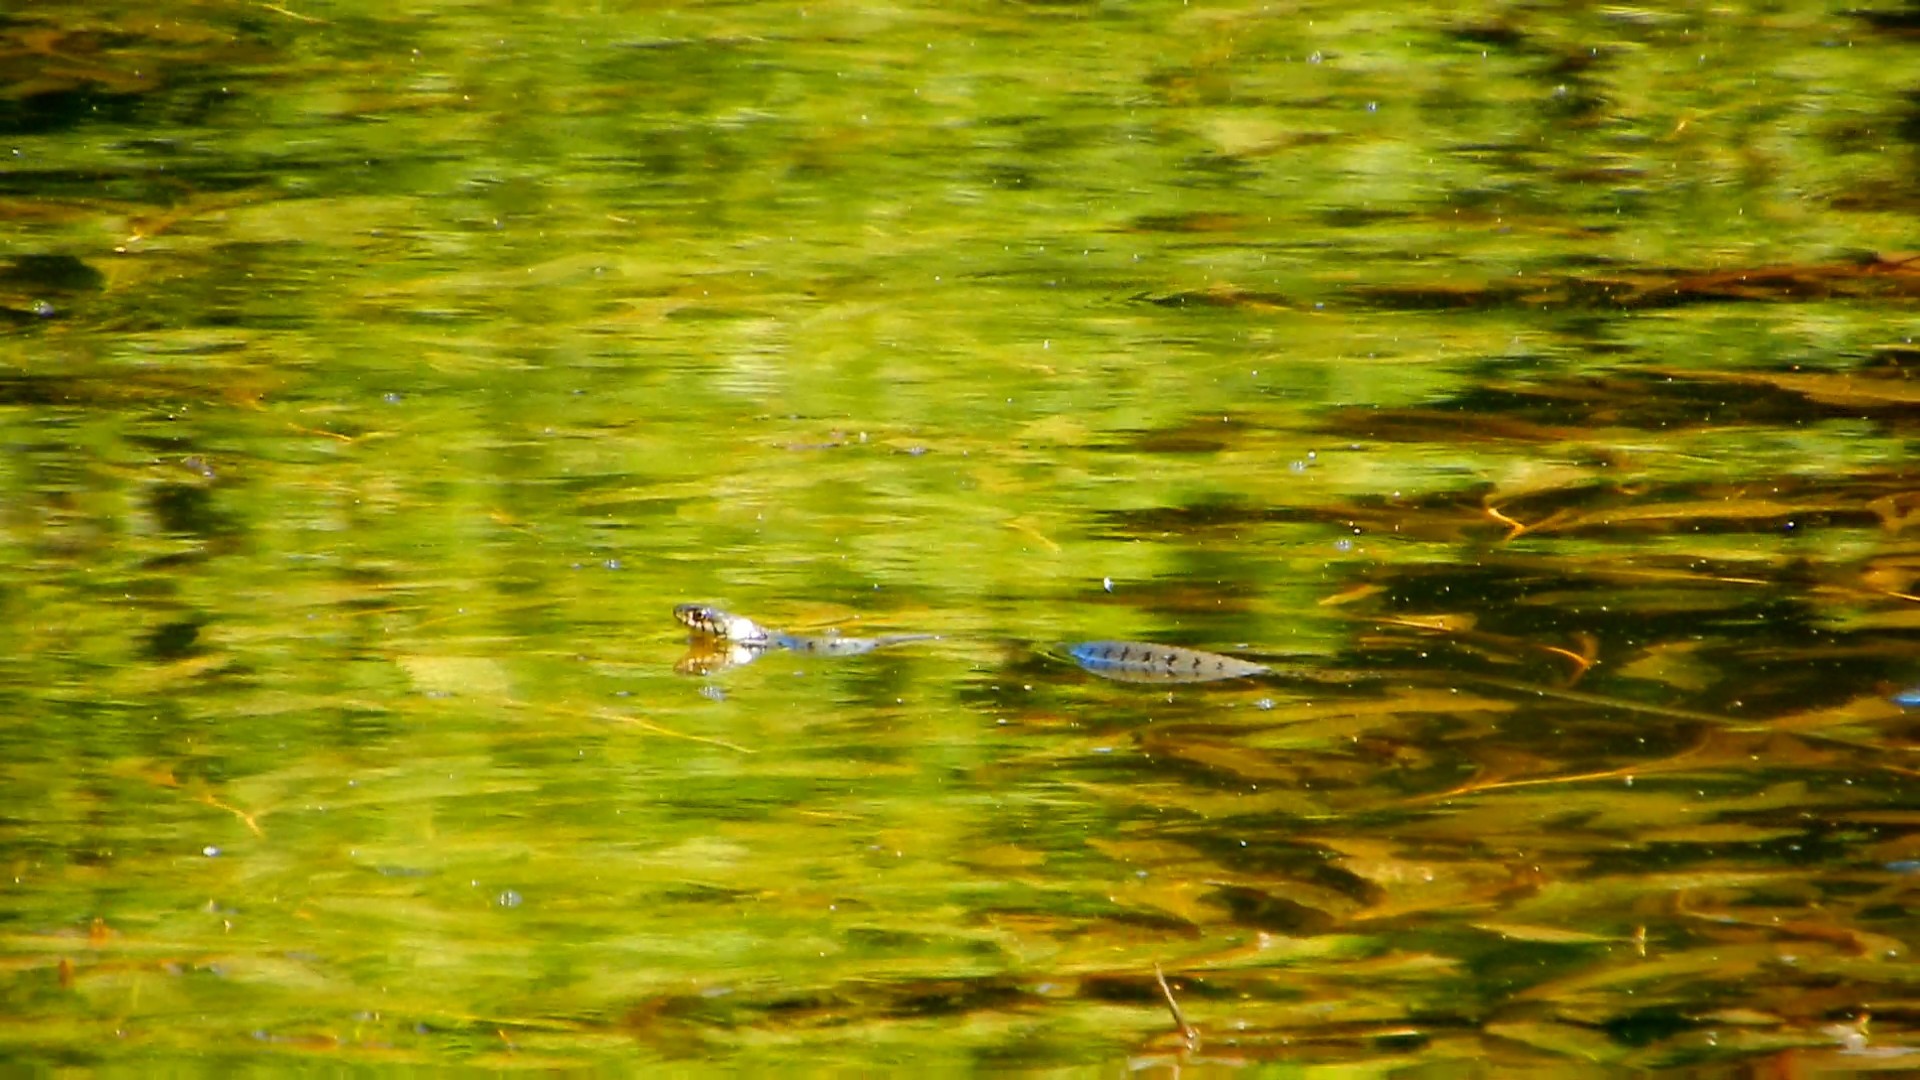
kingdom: Animalia
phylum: Chordata
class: Squamata
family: Colubridae
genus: Natrix
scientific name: Natrix helvetica
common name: Banded grass snake
